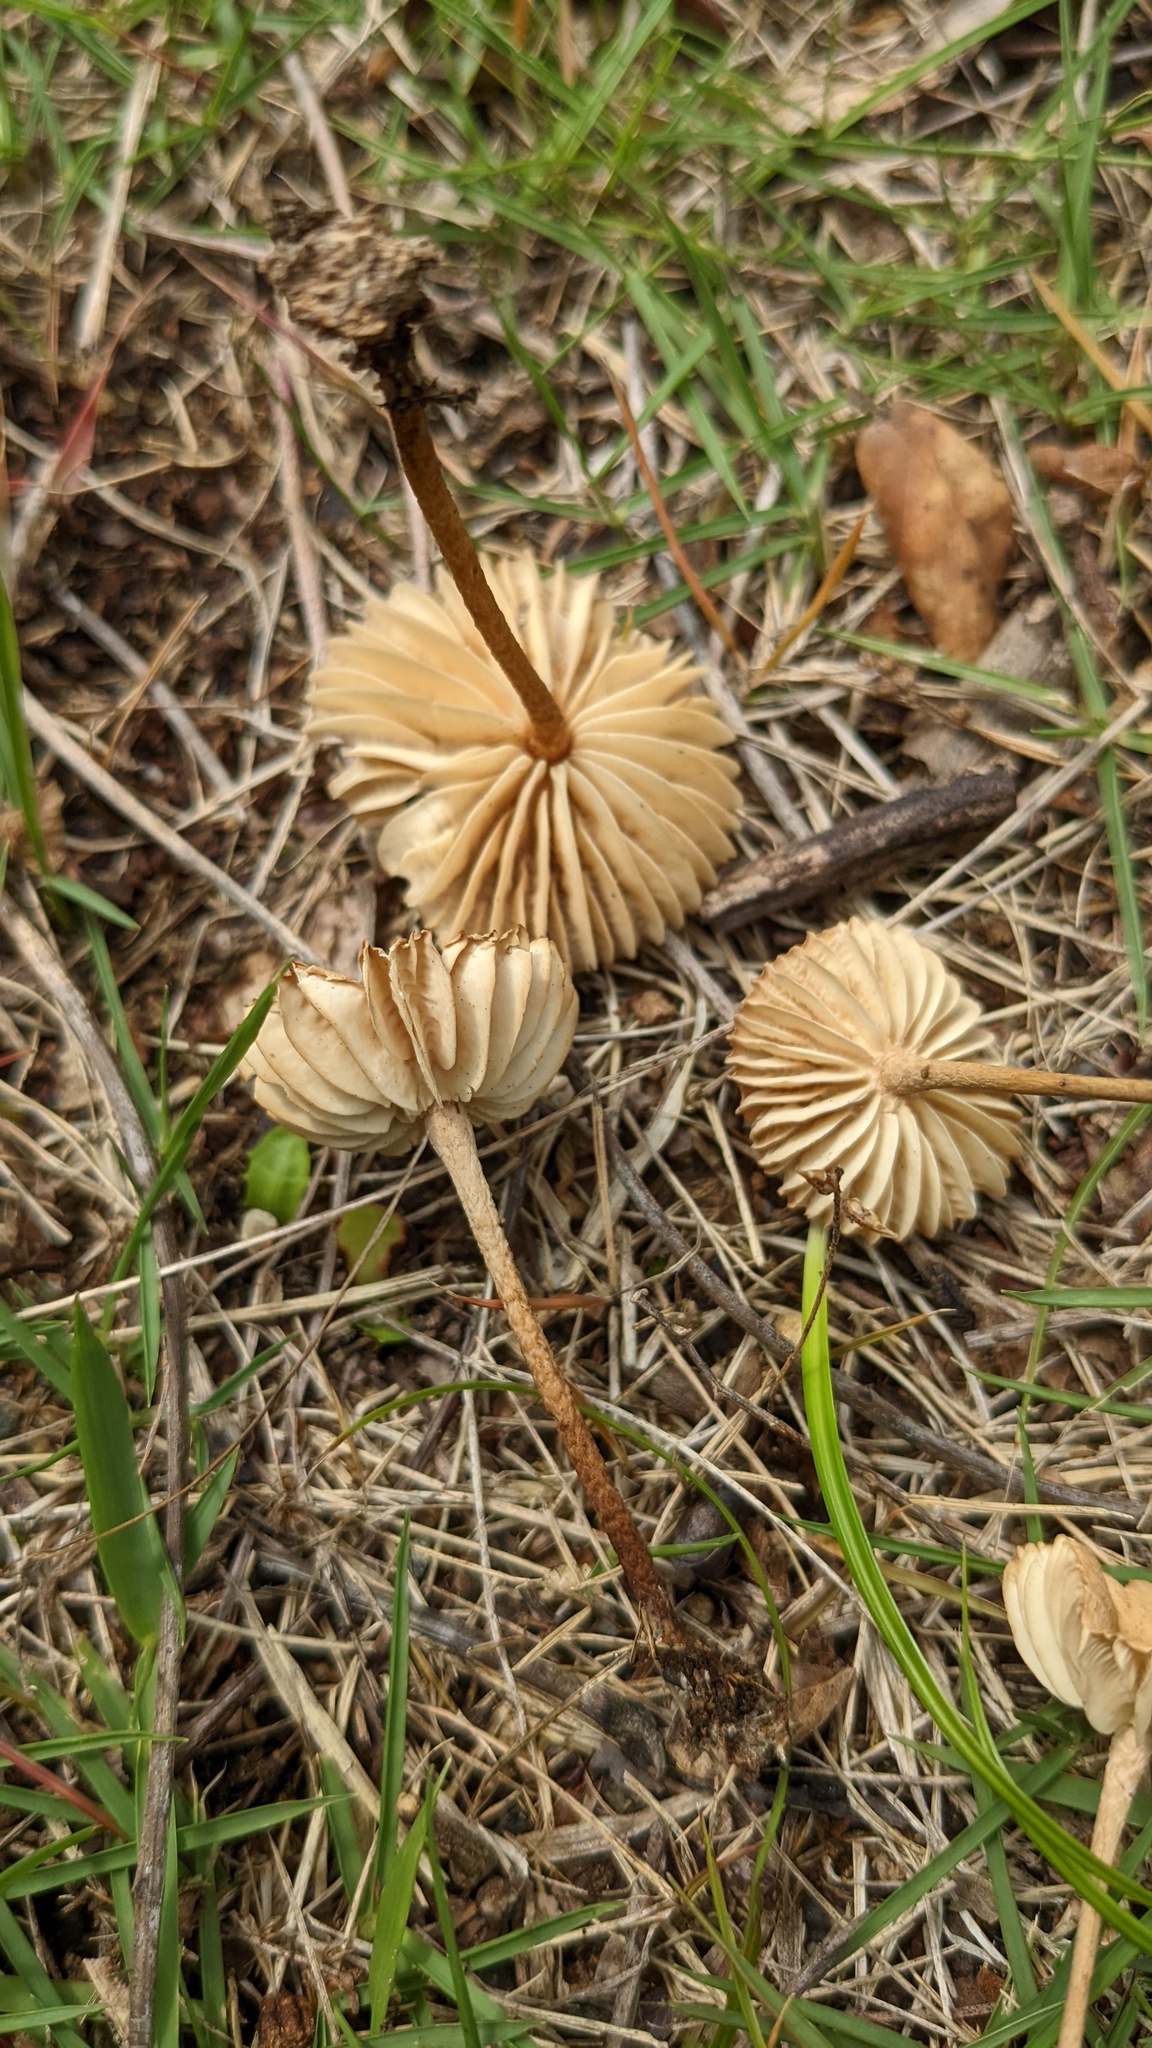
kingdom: Fungi
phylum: Basidiomycota
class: Agaricomycetes
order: Agaricales
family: Marasmiaceae
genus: Marasmius
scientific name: Marasmius oreades
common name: Fairy ring champignon
